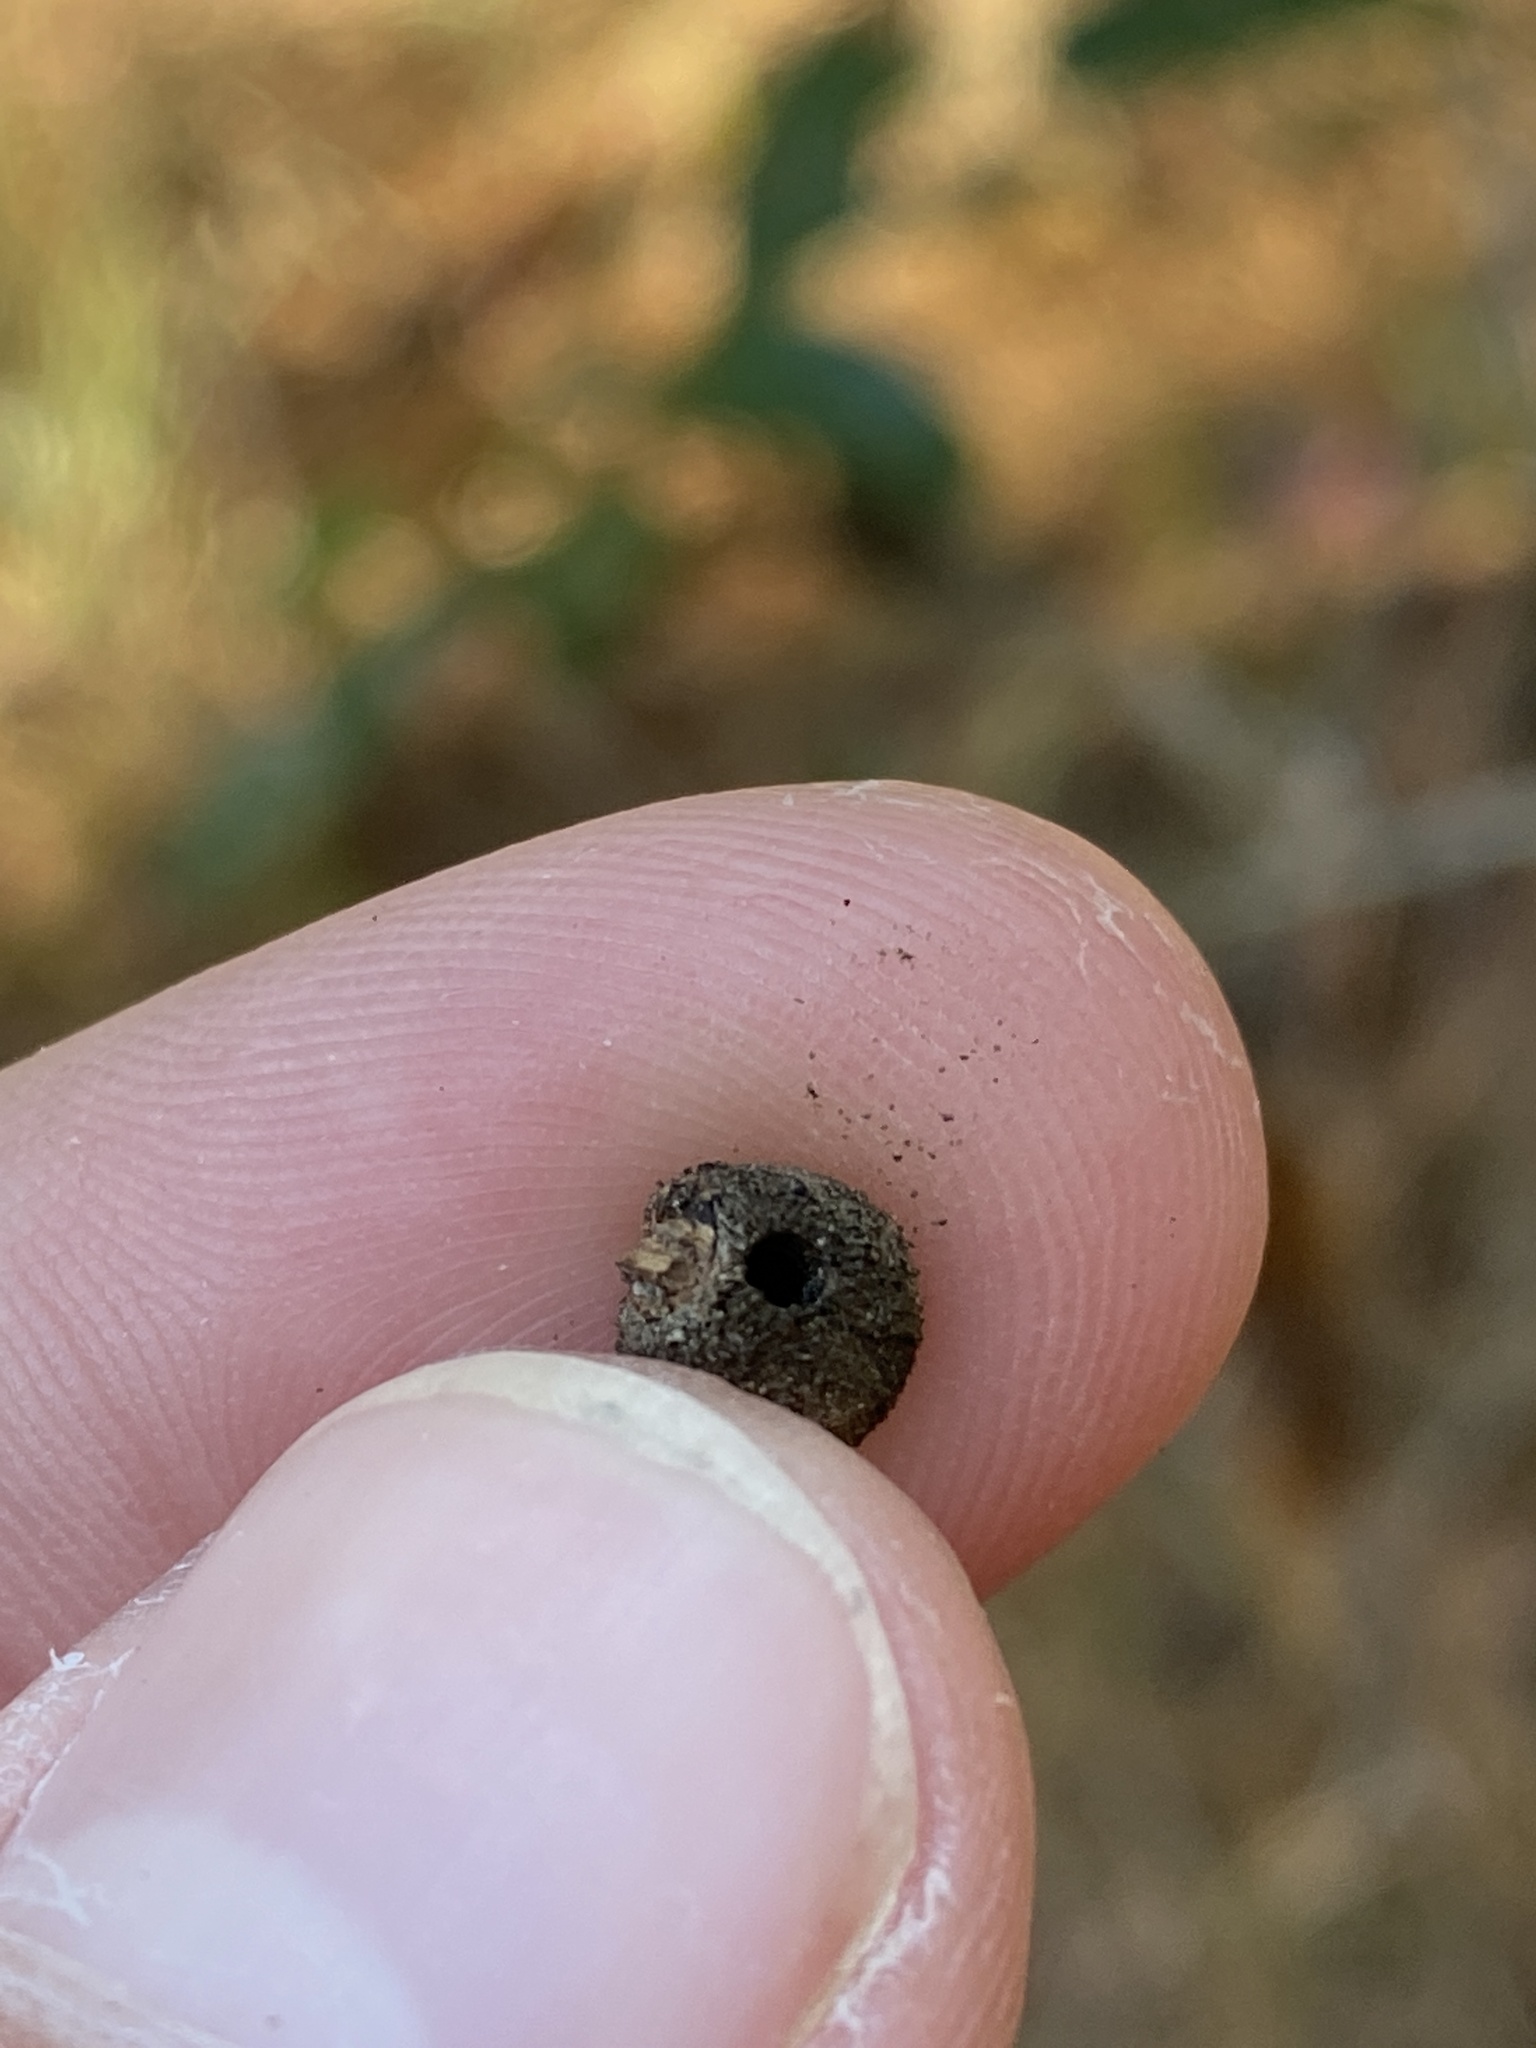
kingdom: Animalia
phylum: Arthropoda
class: Insecta
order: Hymenoptera
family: Cynipidae
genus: Disholcaspis
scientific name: Disholcaspis
